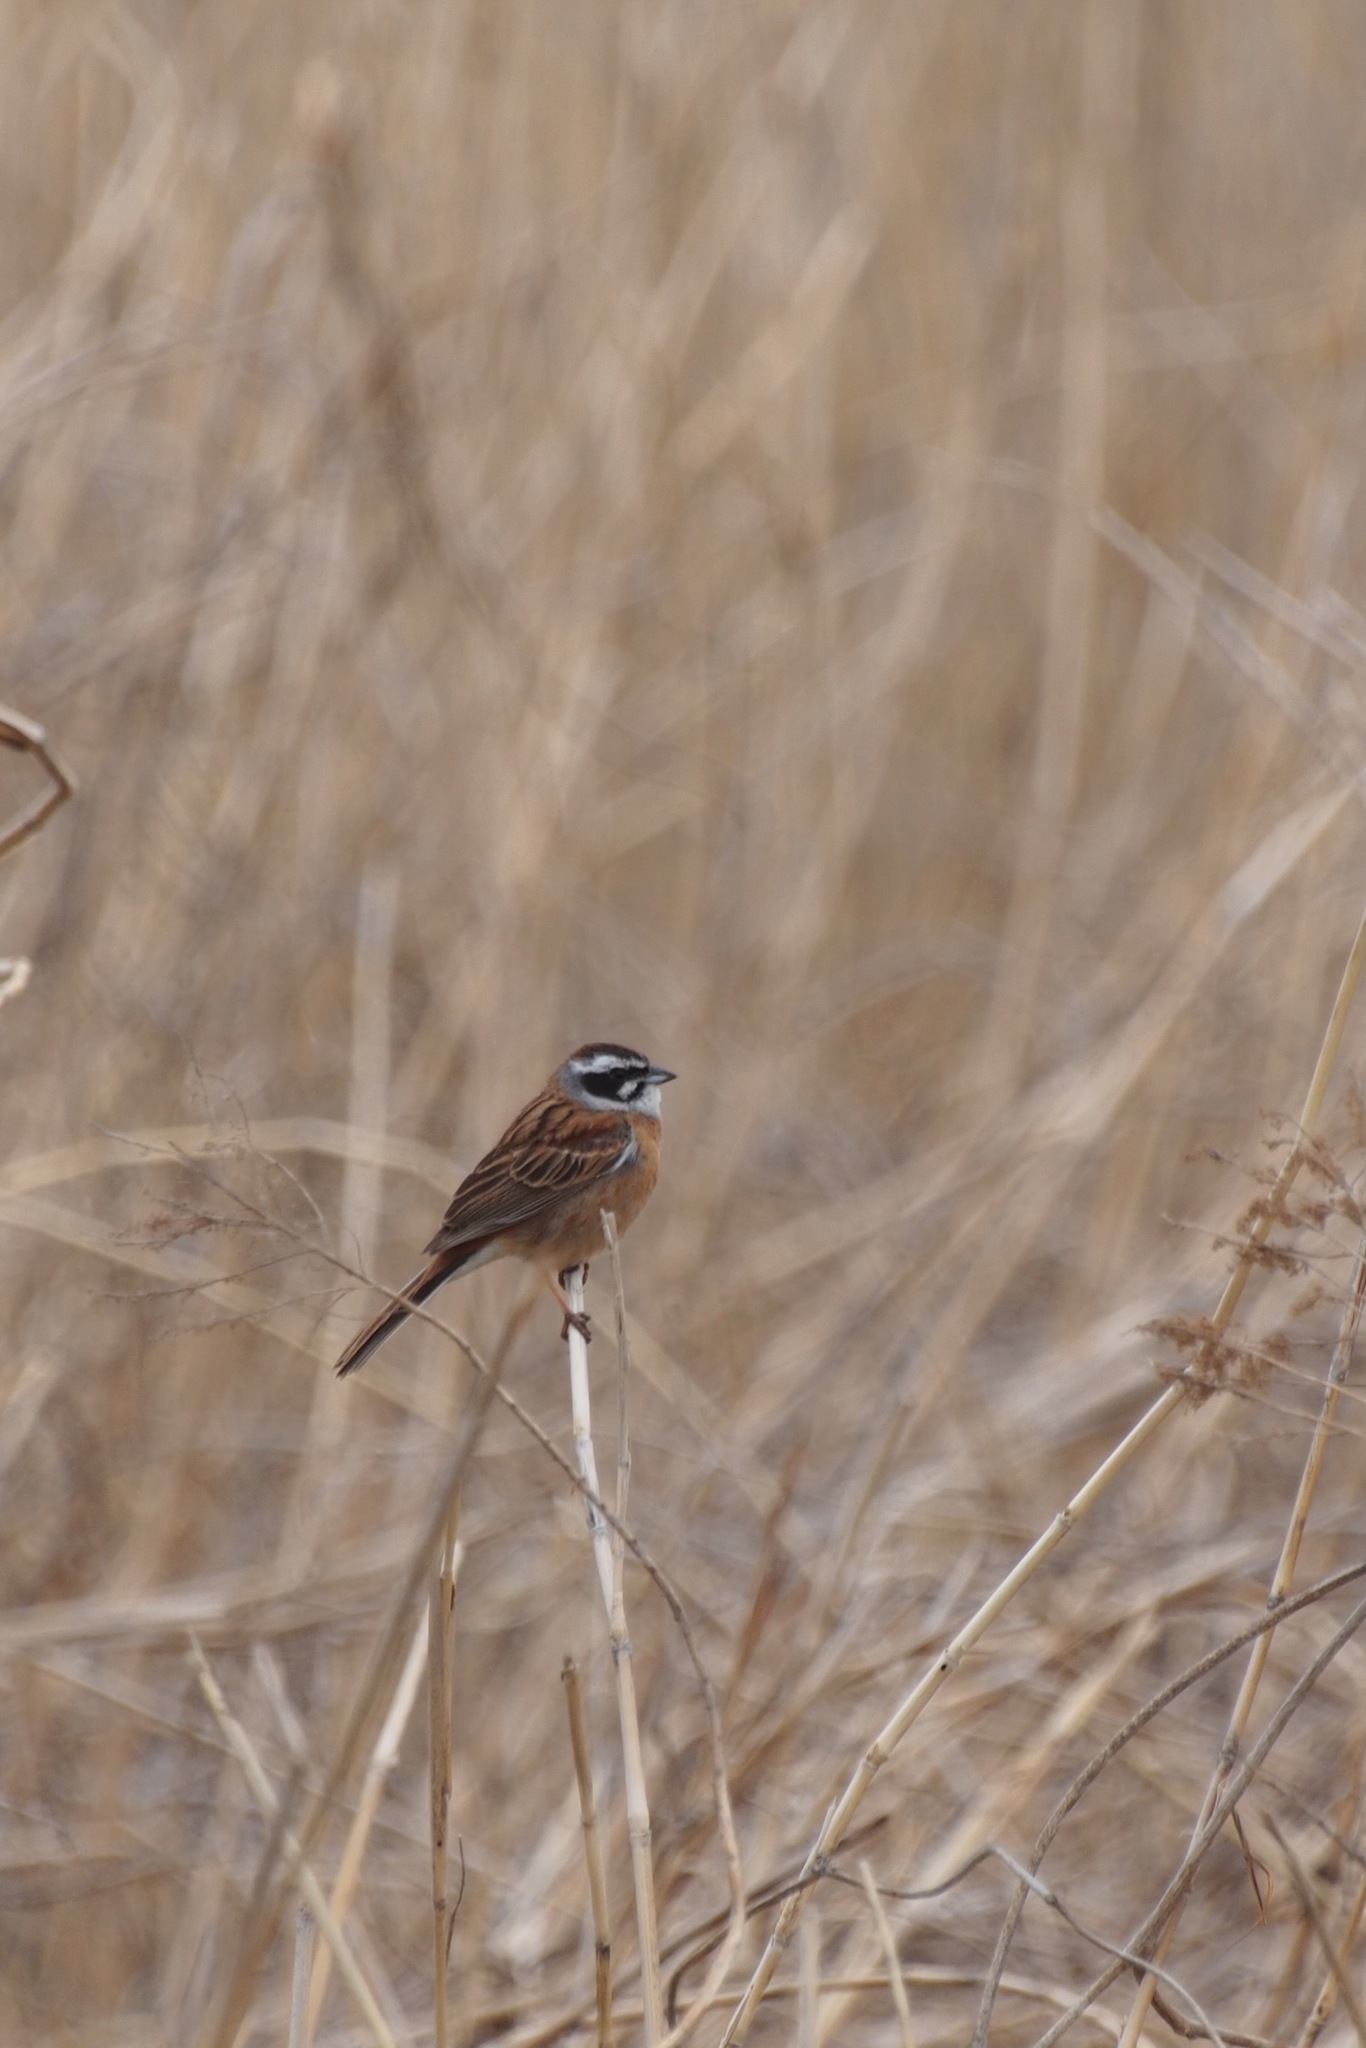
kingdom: Animalia
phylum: Chordata
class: Aves
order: Passeriformes
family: Emberizidae
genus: Emberiza
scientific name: Emberiza cioides
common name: Meadow bunting
